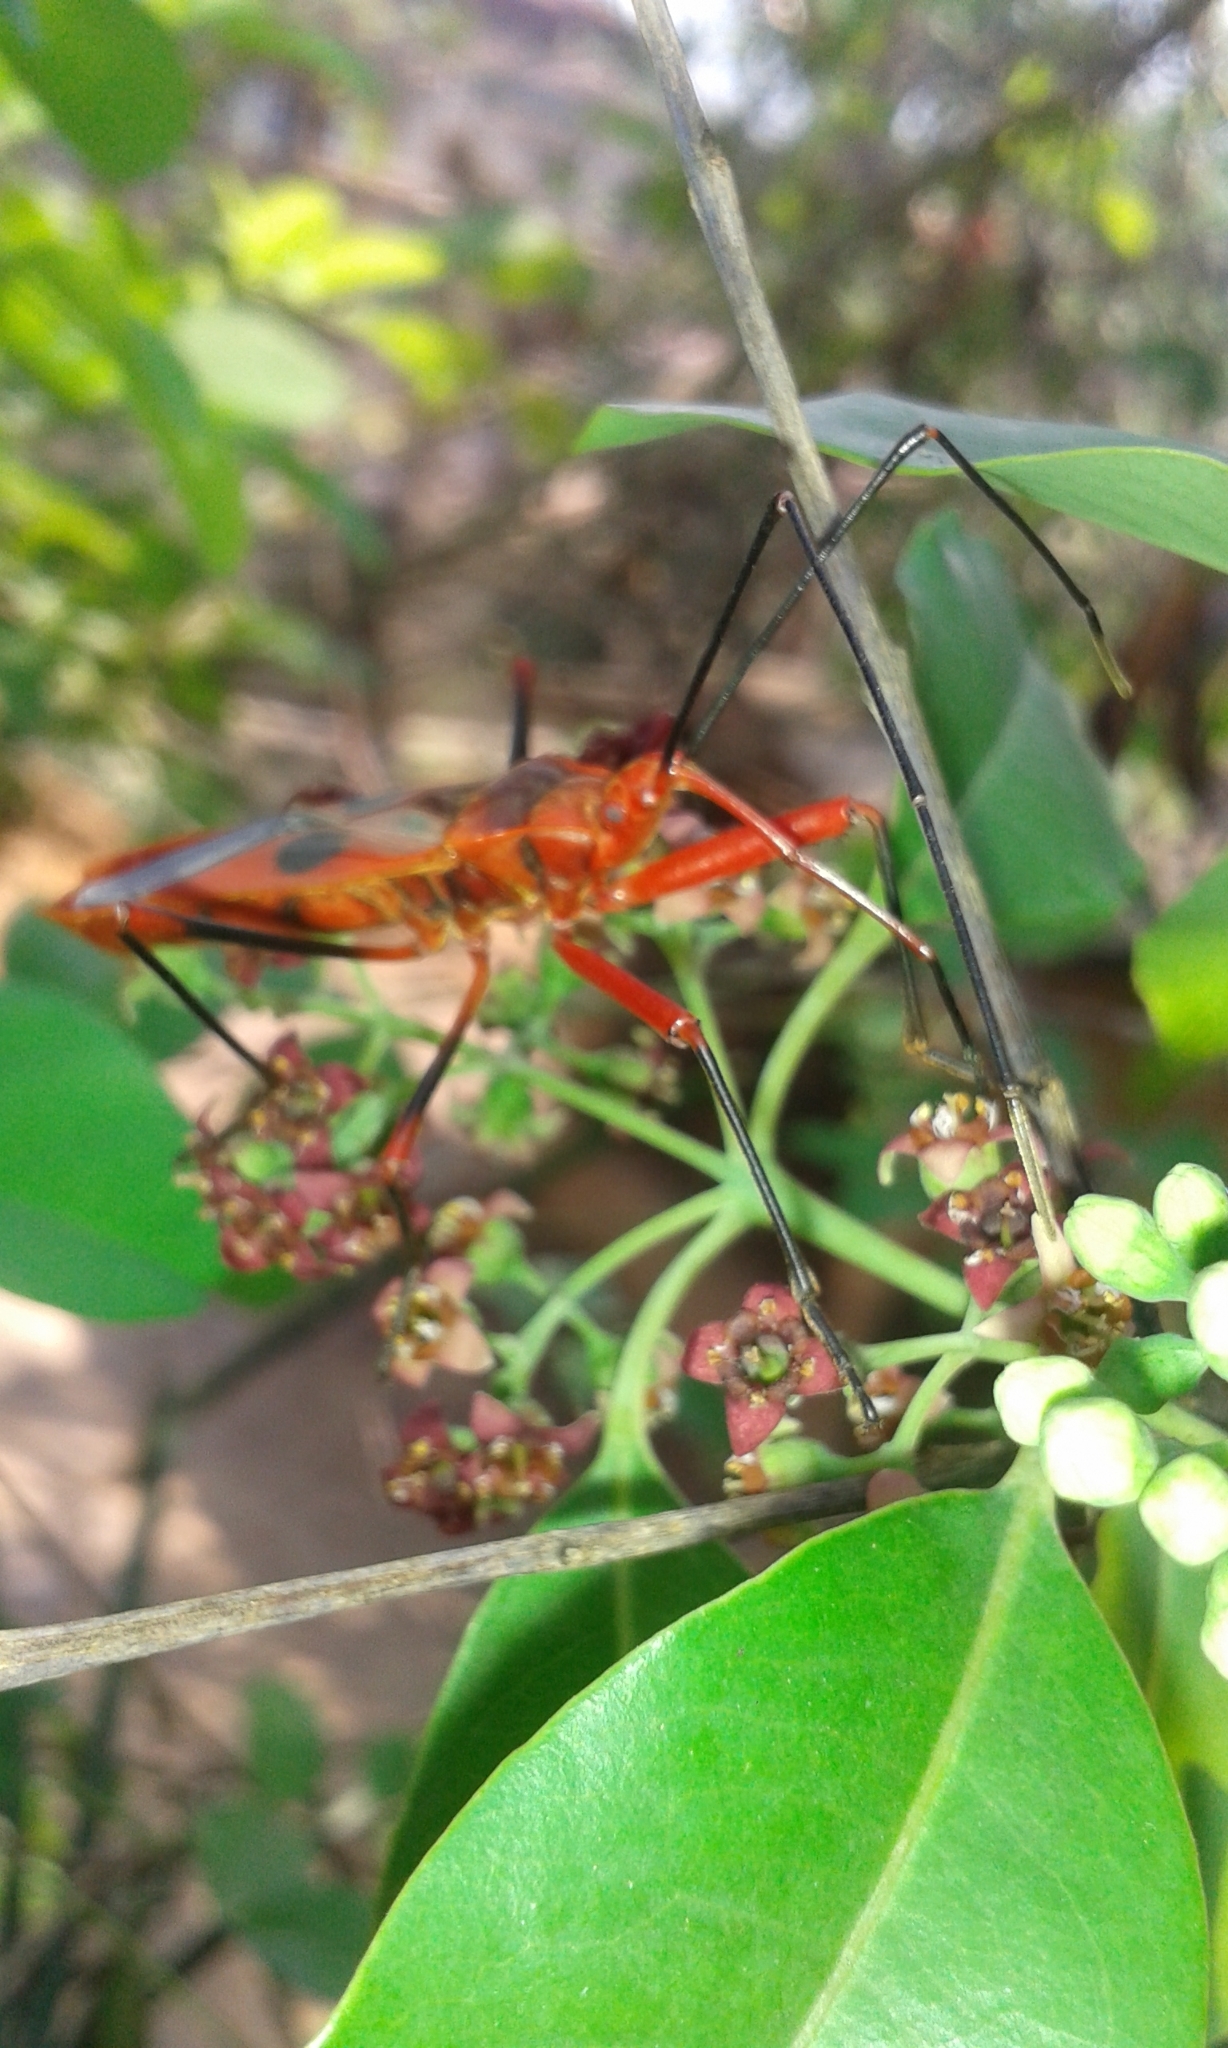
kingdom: Animalia
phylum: Arthropoda
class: Insecta
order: Hemiptera
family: Largidae
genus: Macrocheraia
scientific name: Macrocheraia grandis
